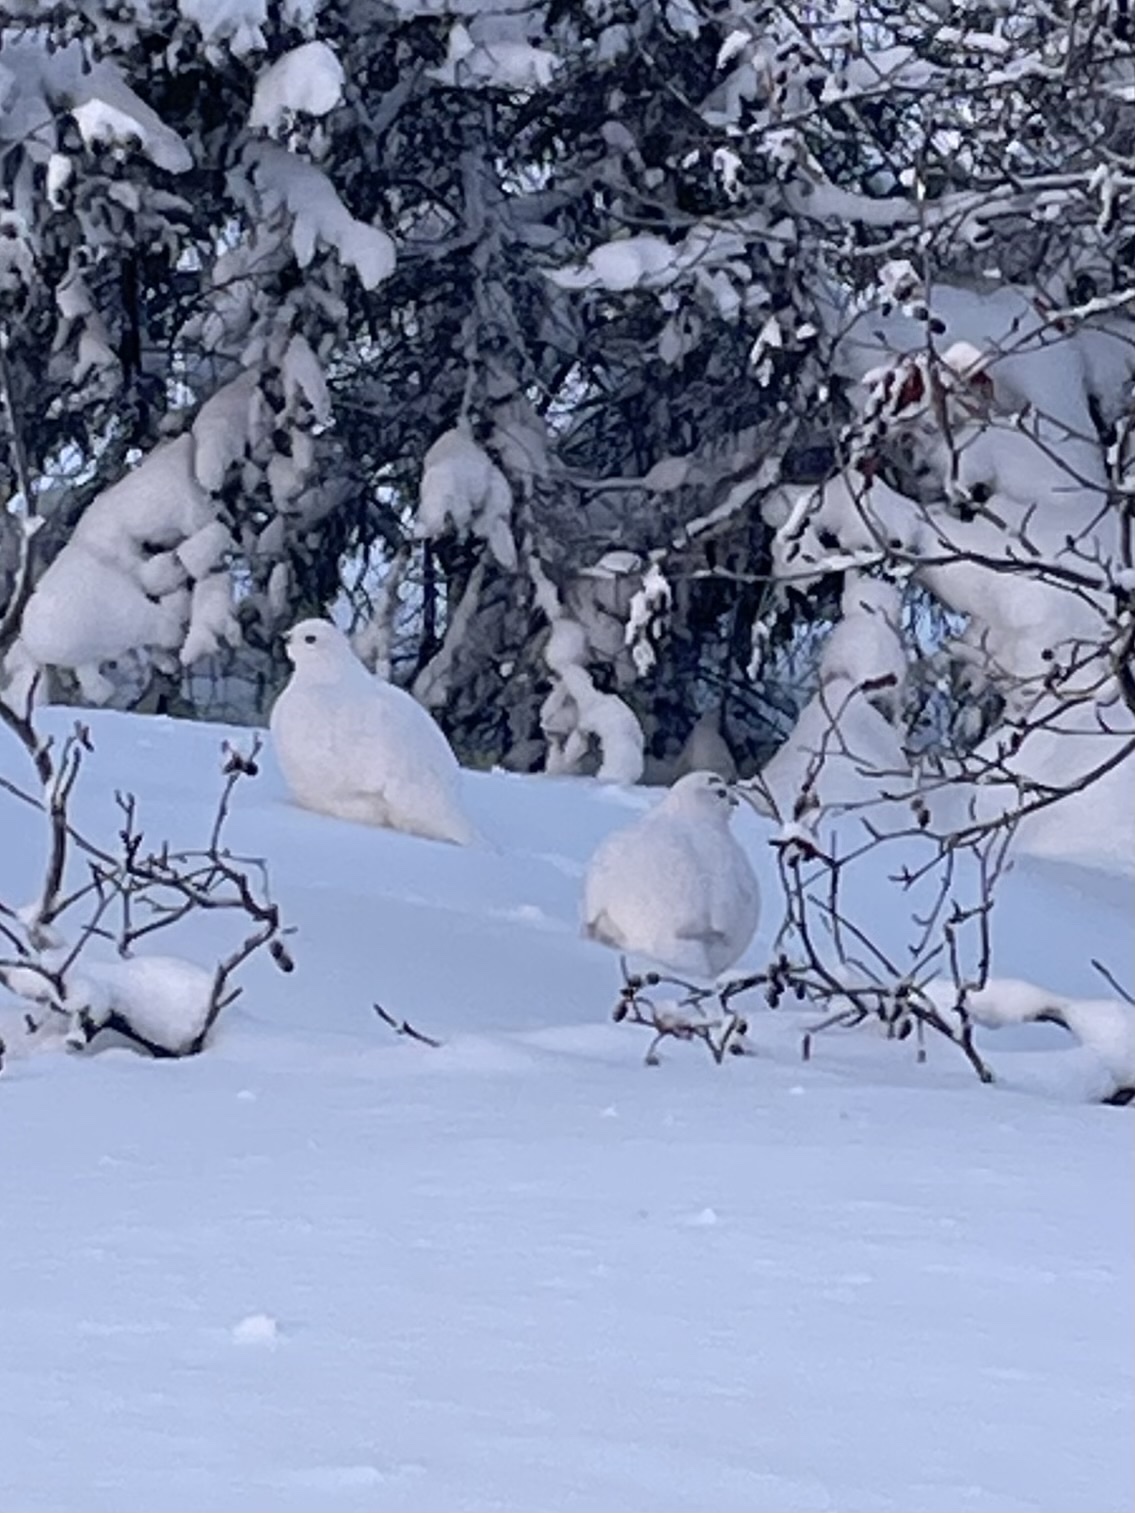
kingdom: Animalia
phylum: Chordata
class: Aves
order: Galliformes
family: Phasianidae
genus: Lagopus
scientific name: Lagopus lagopus
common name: Willow ptarmigan
